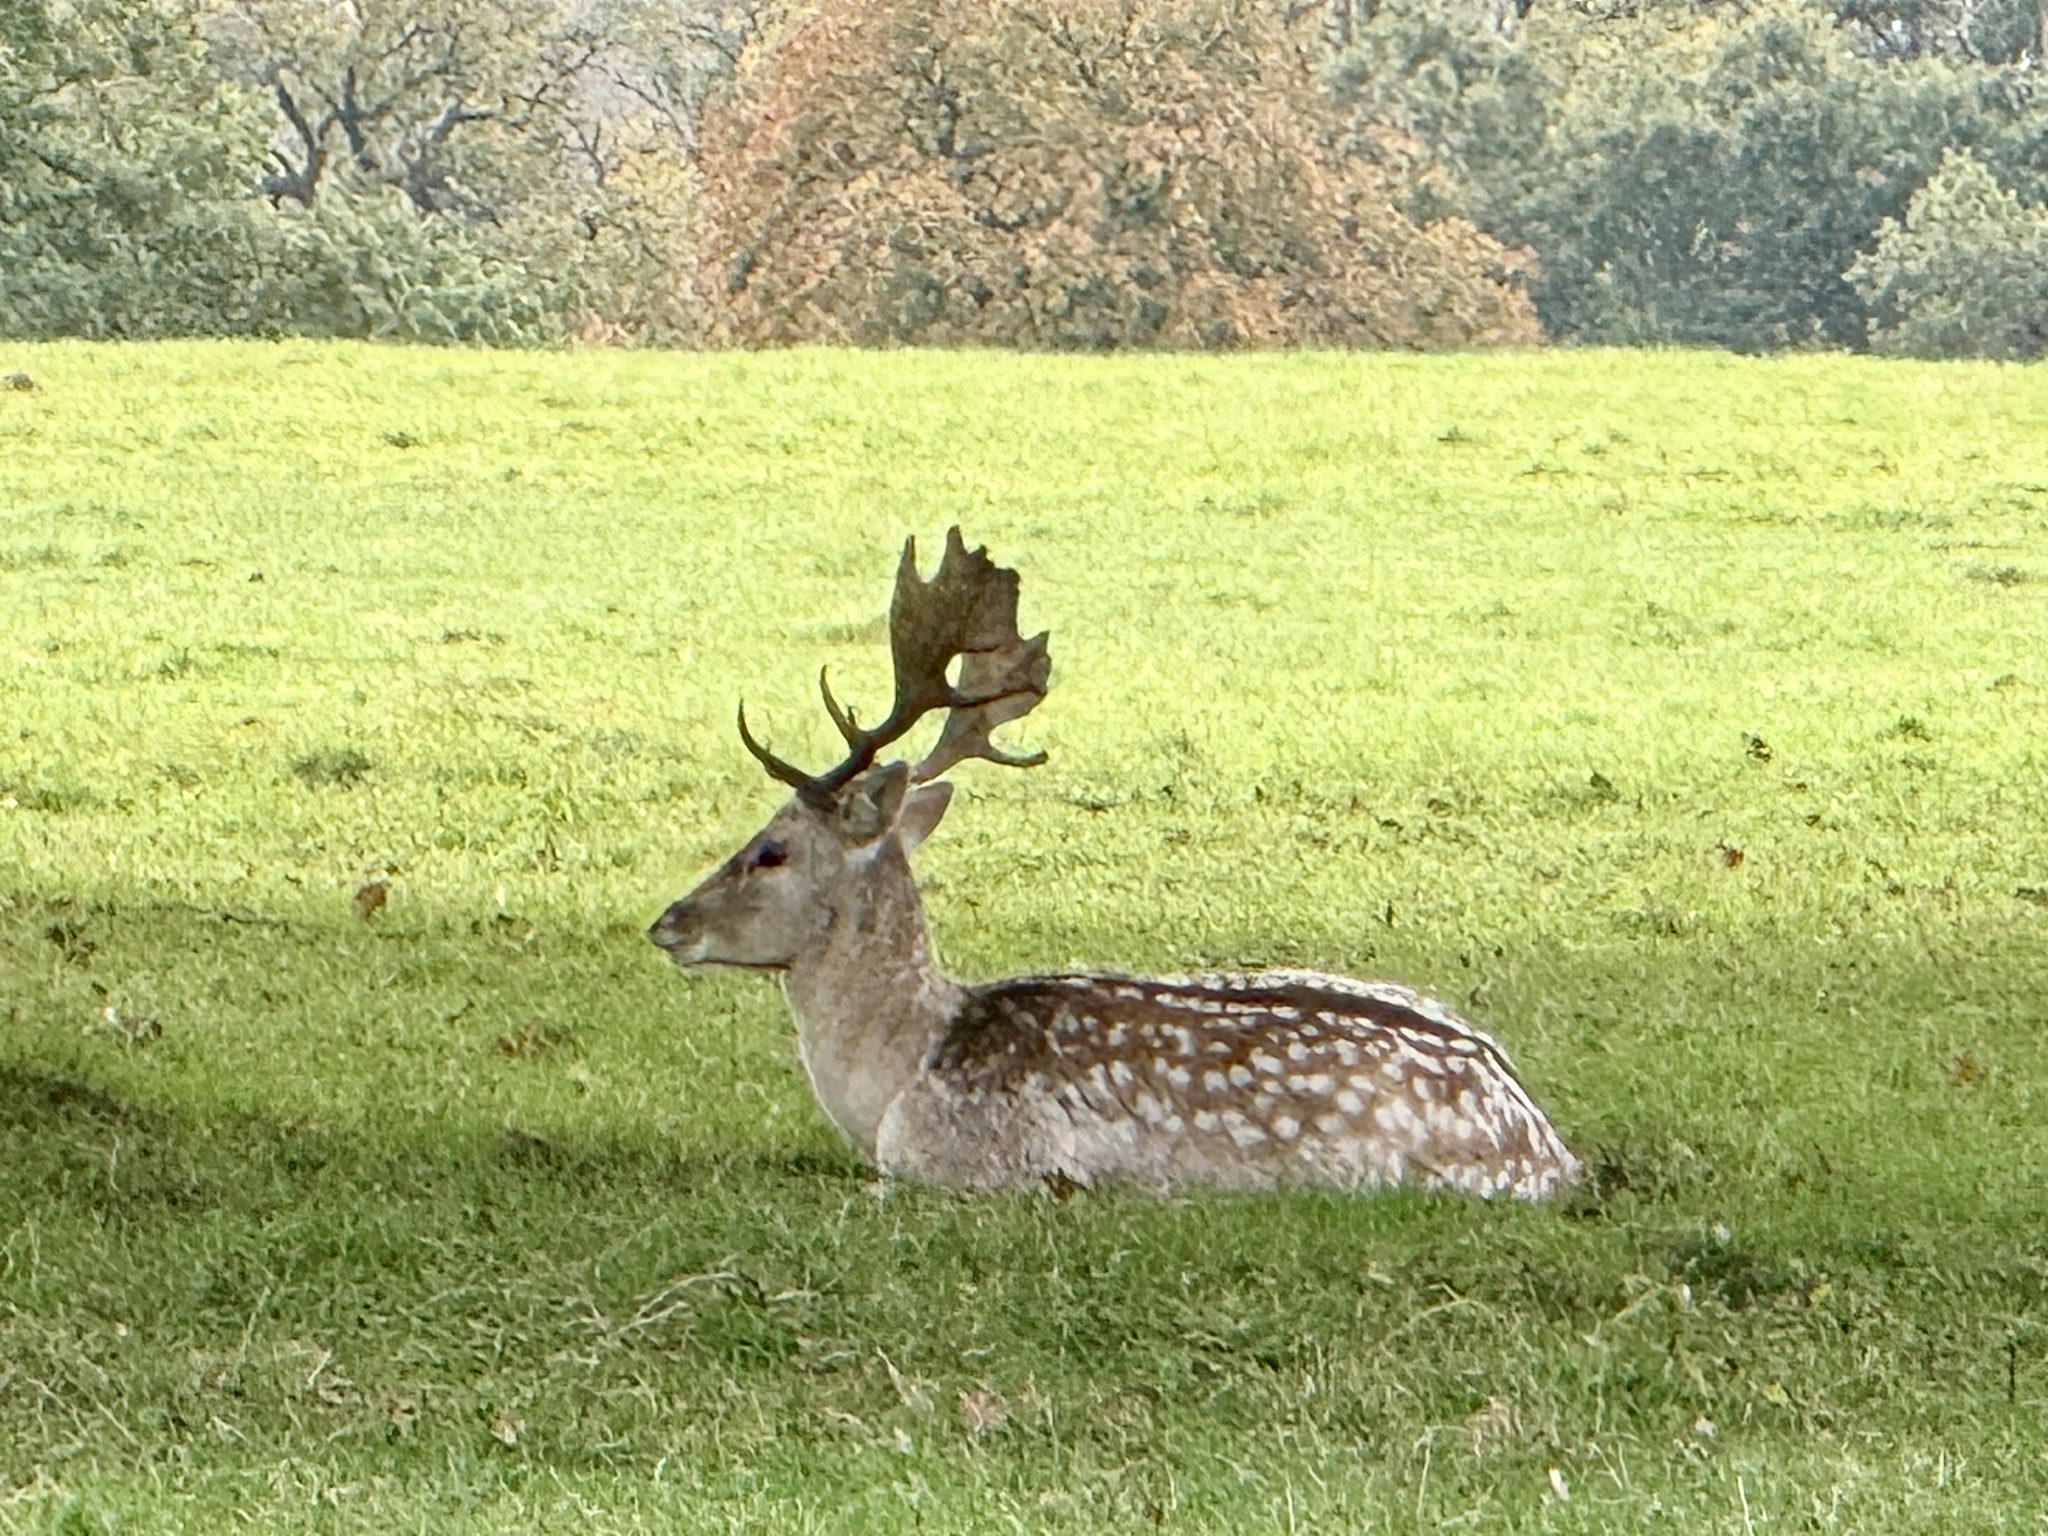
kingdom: Animalia
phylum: Chordata
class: Mammalia
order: Artiodactyla
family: Cervidae
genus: Dama
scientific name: Dama dama
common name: Fallow deer
